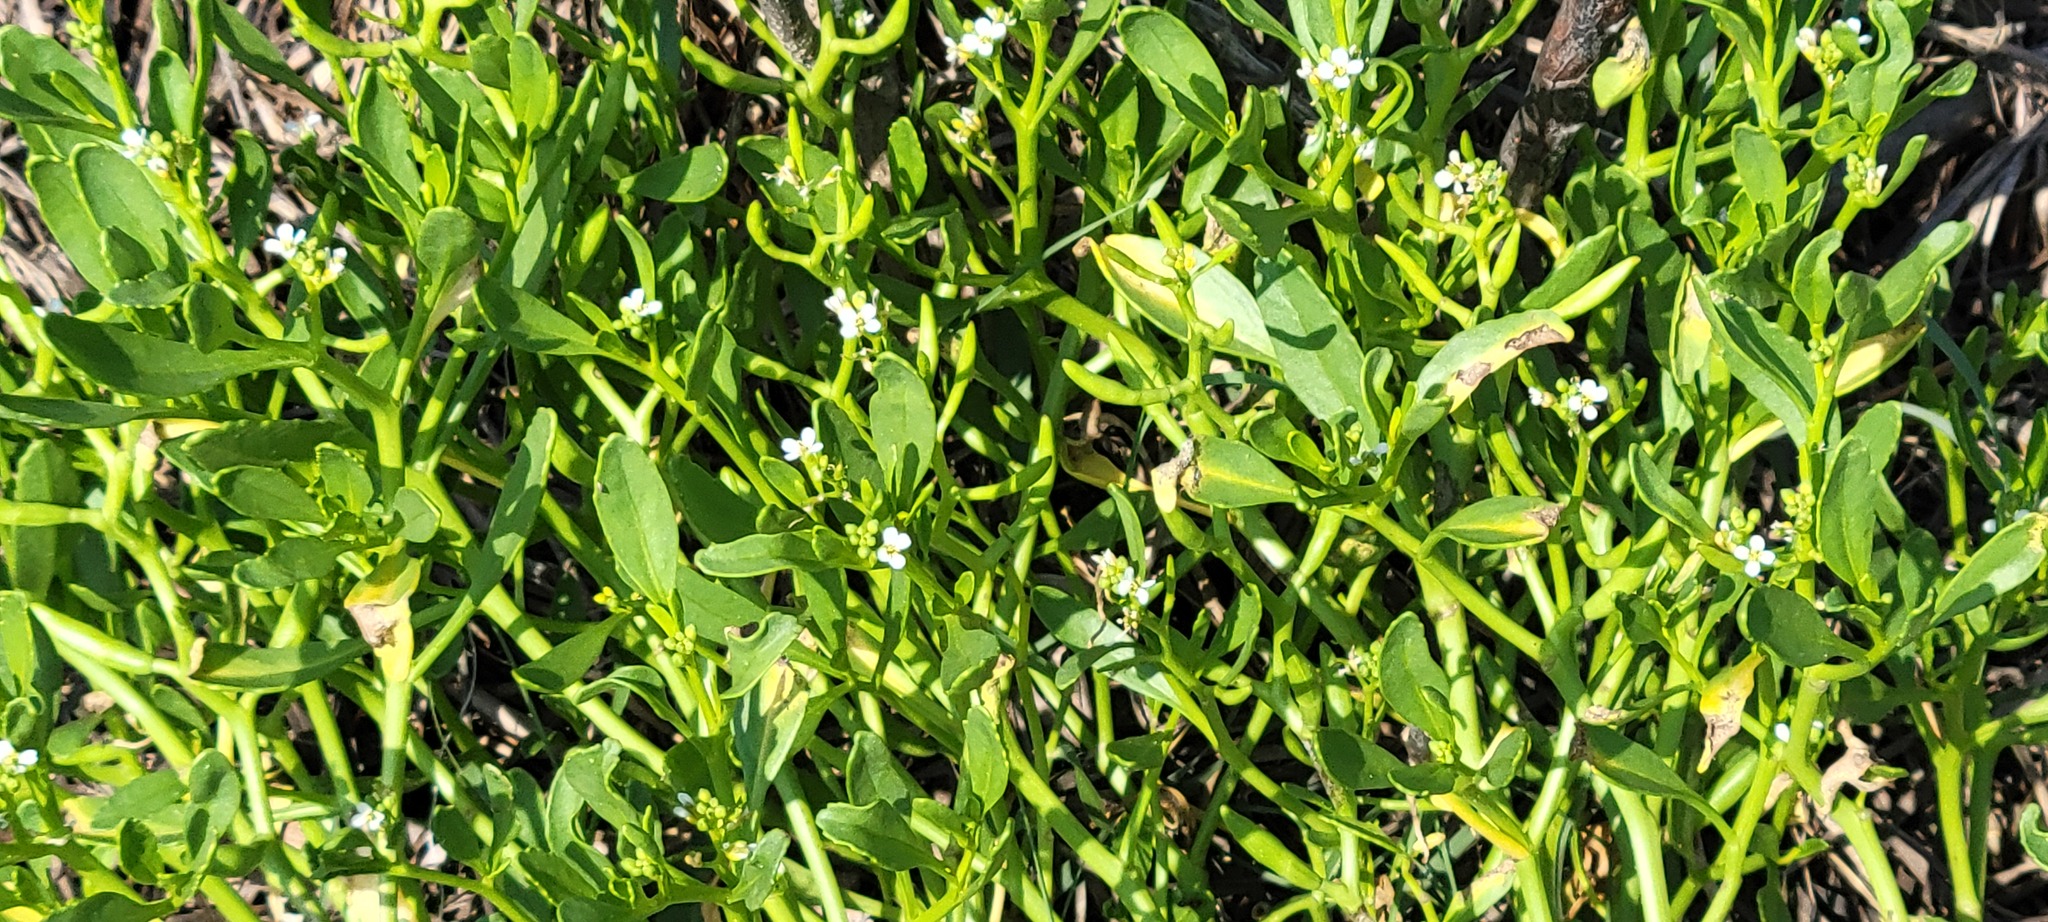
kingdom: Plantae
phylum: Tracheophyta
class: Magnoliopsida
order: Brassicales
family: Brassicaceae
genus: Cakile
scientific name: Cakile geniculata
